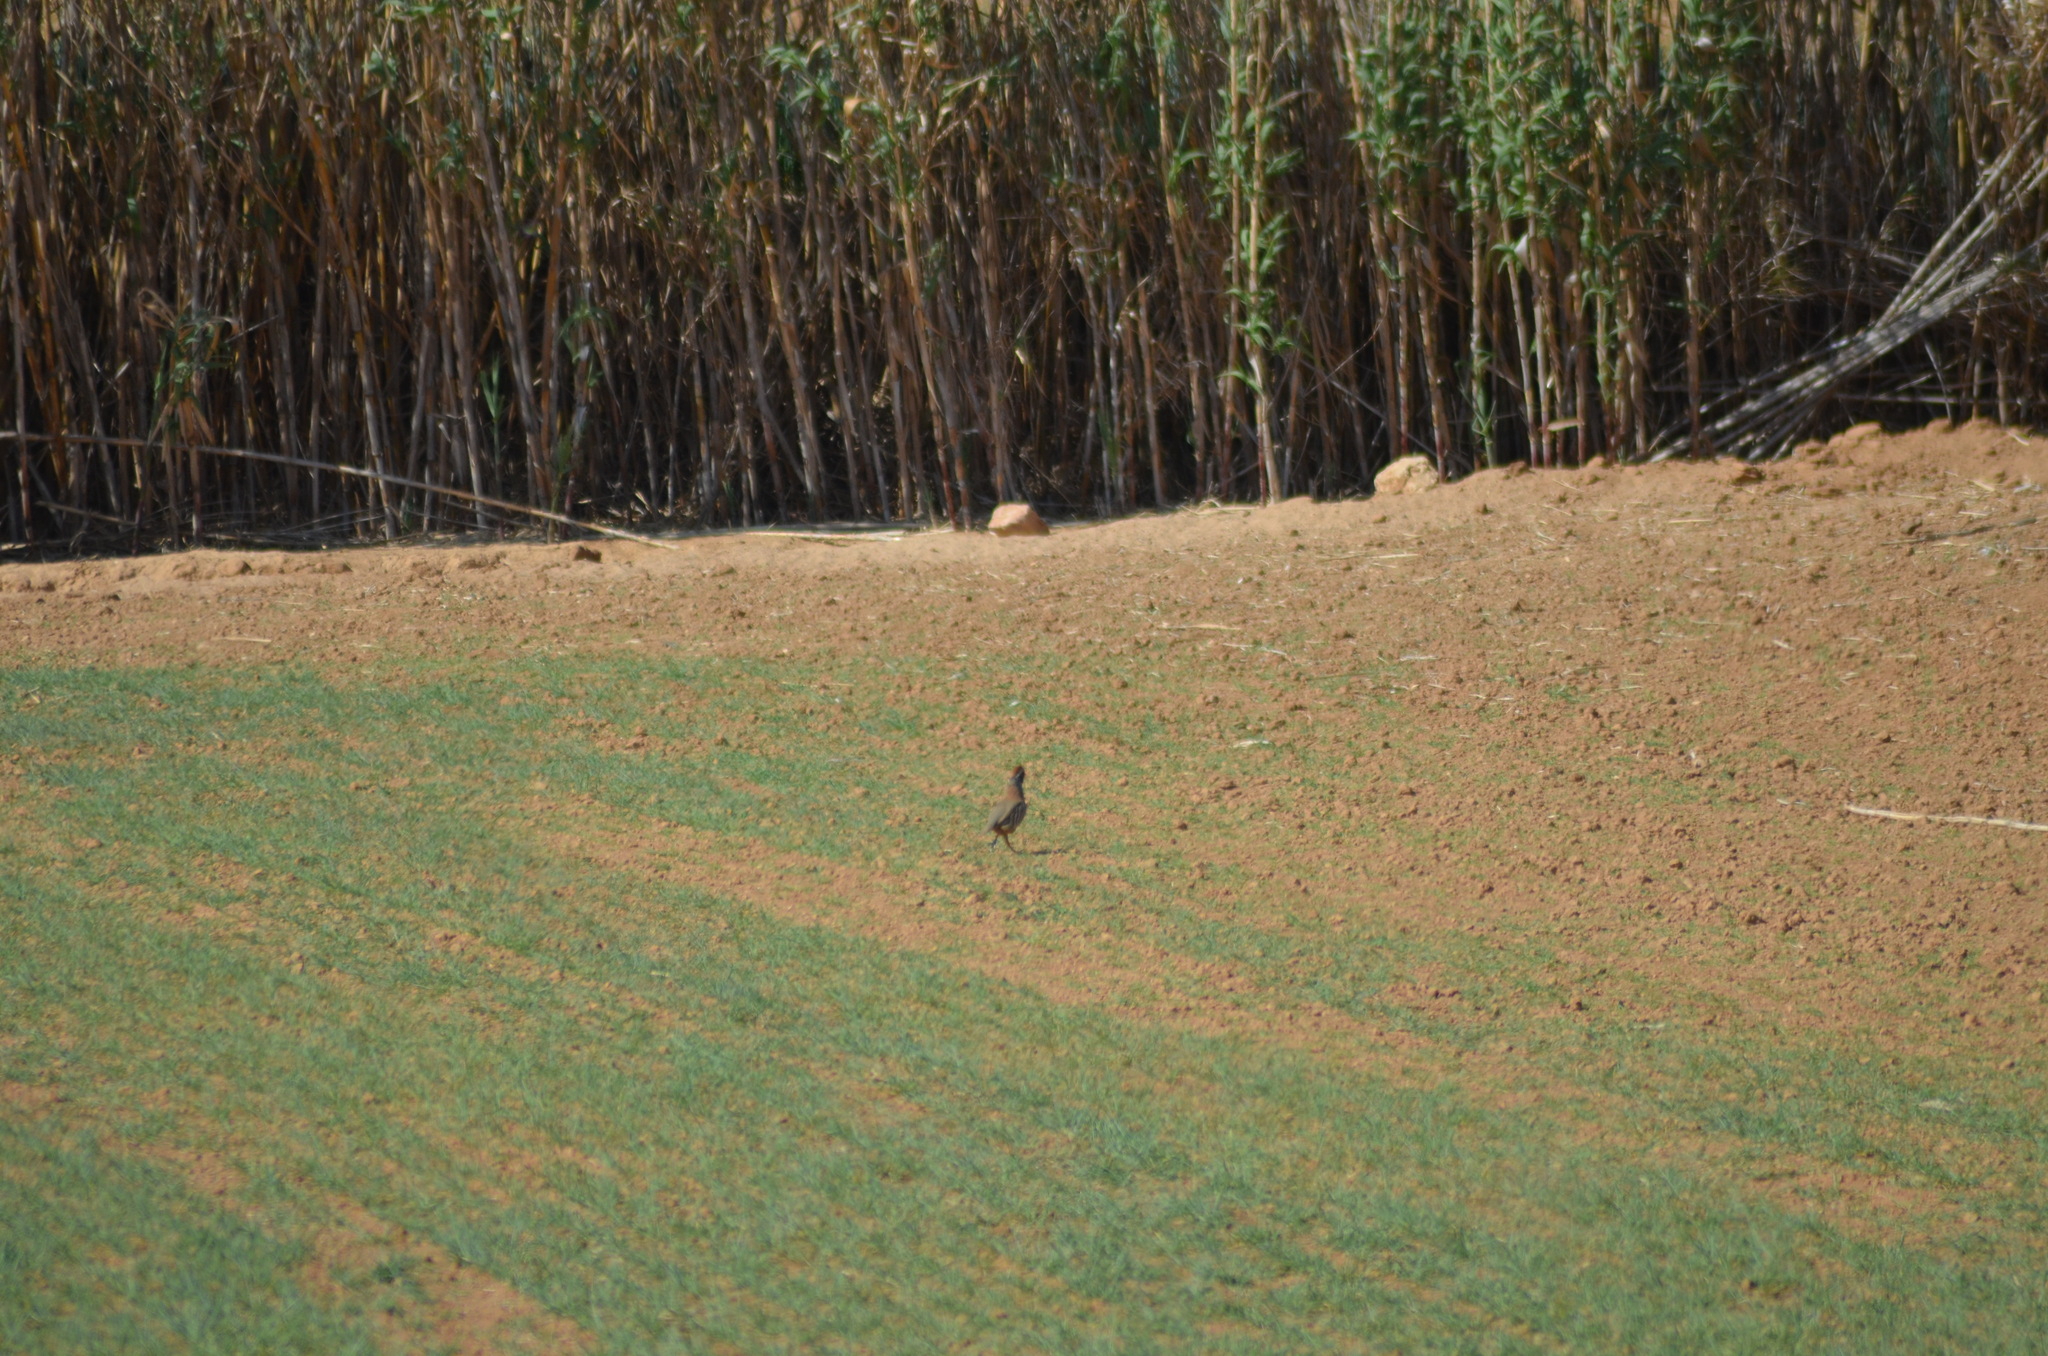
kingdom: Animalia
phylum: Chordata
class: Aves
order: Galliformes
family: Phasianidae
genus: Alectoris
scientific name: Alectoris rufa
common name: Red-legged partridge
